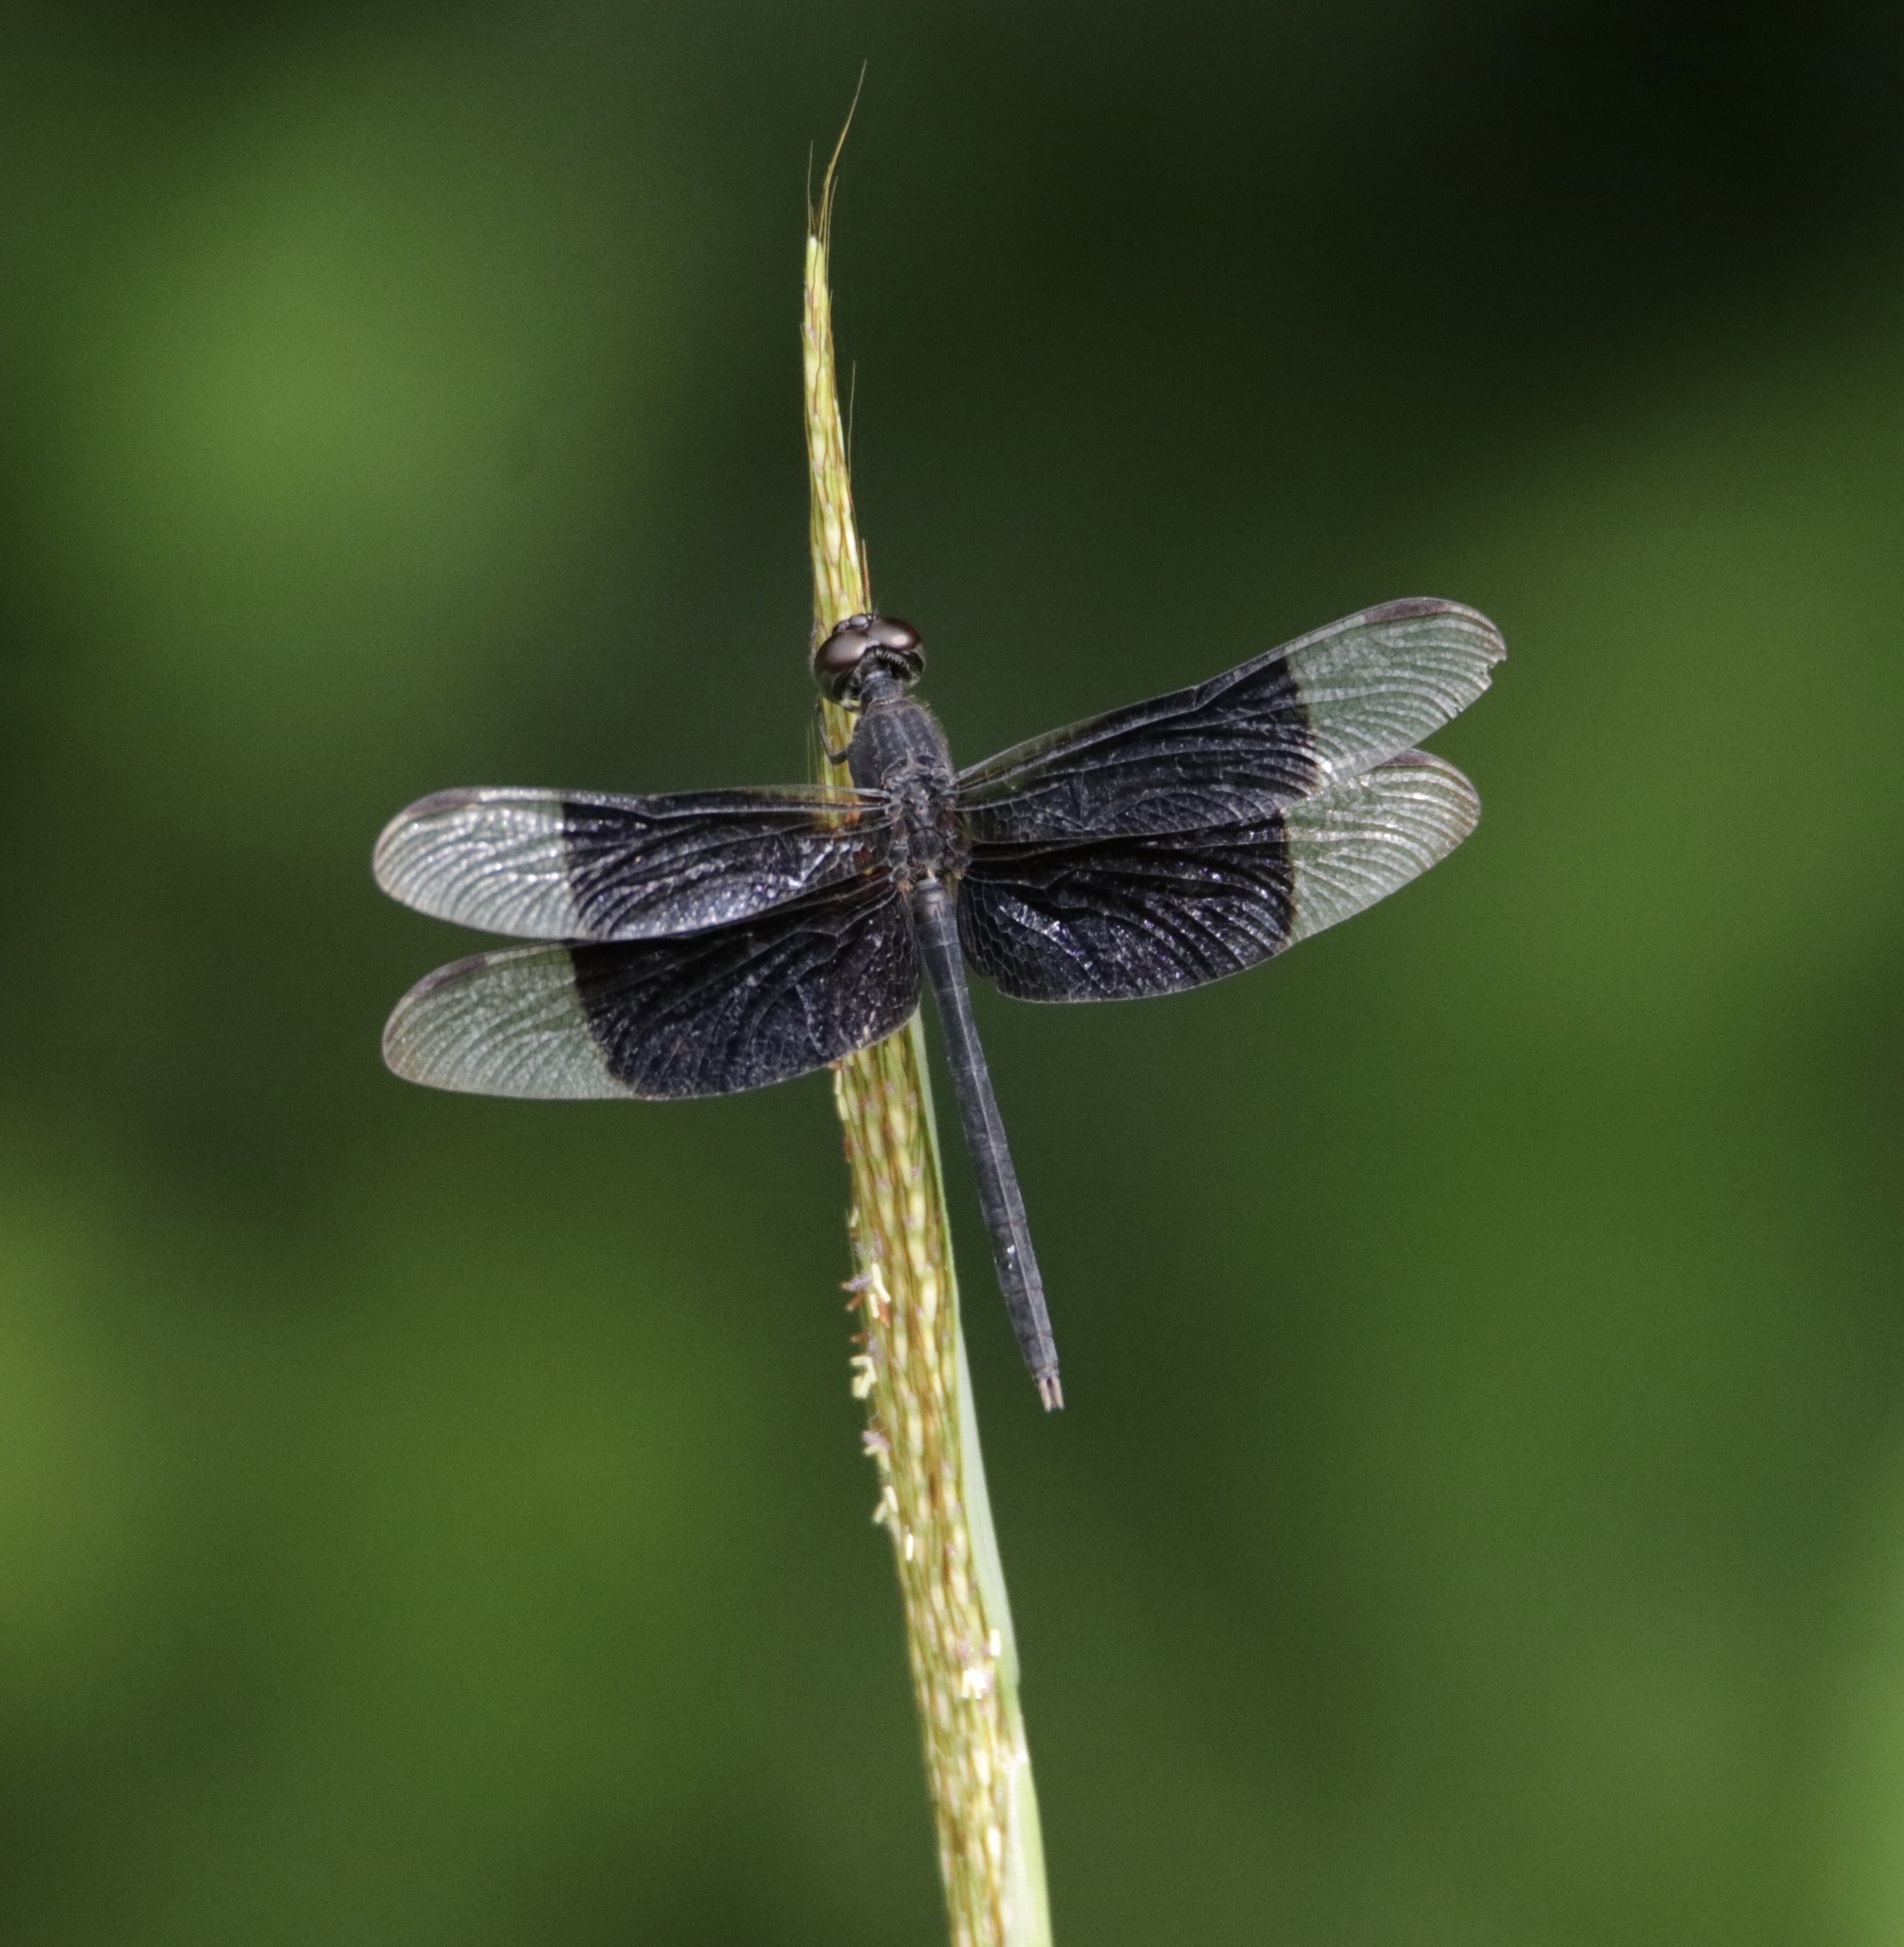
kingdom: Animalia
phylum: Arthropoda
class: Insecta
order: Odonata
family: Libellulidae
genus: Erythrodiplax
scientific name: Erythrodiplax funerea
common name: Black-winged dragonlet
